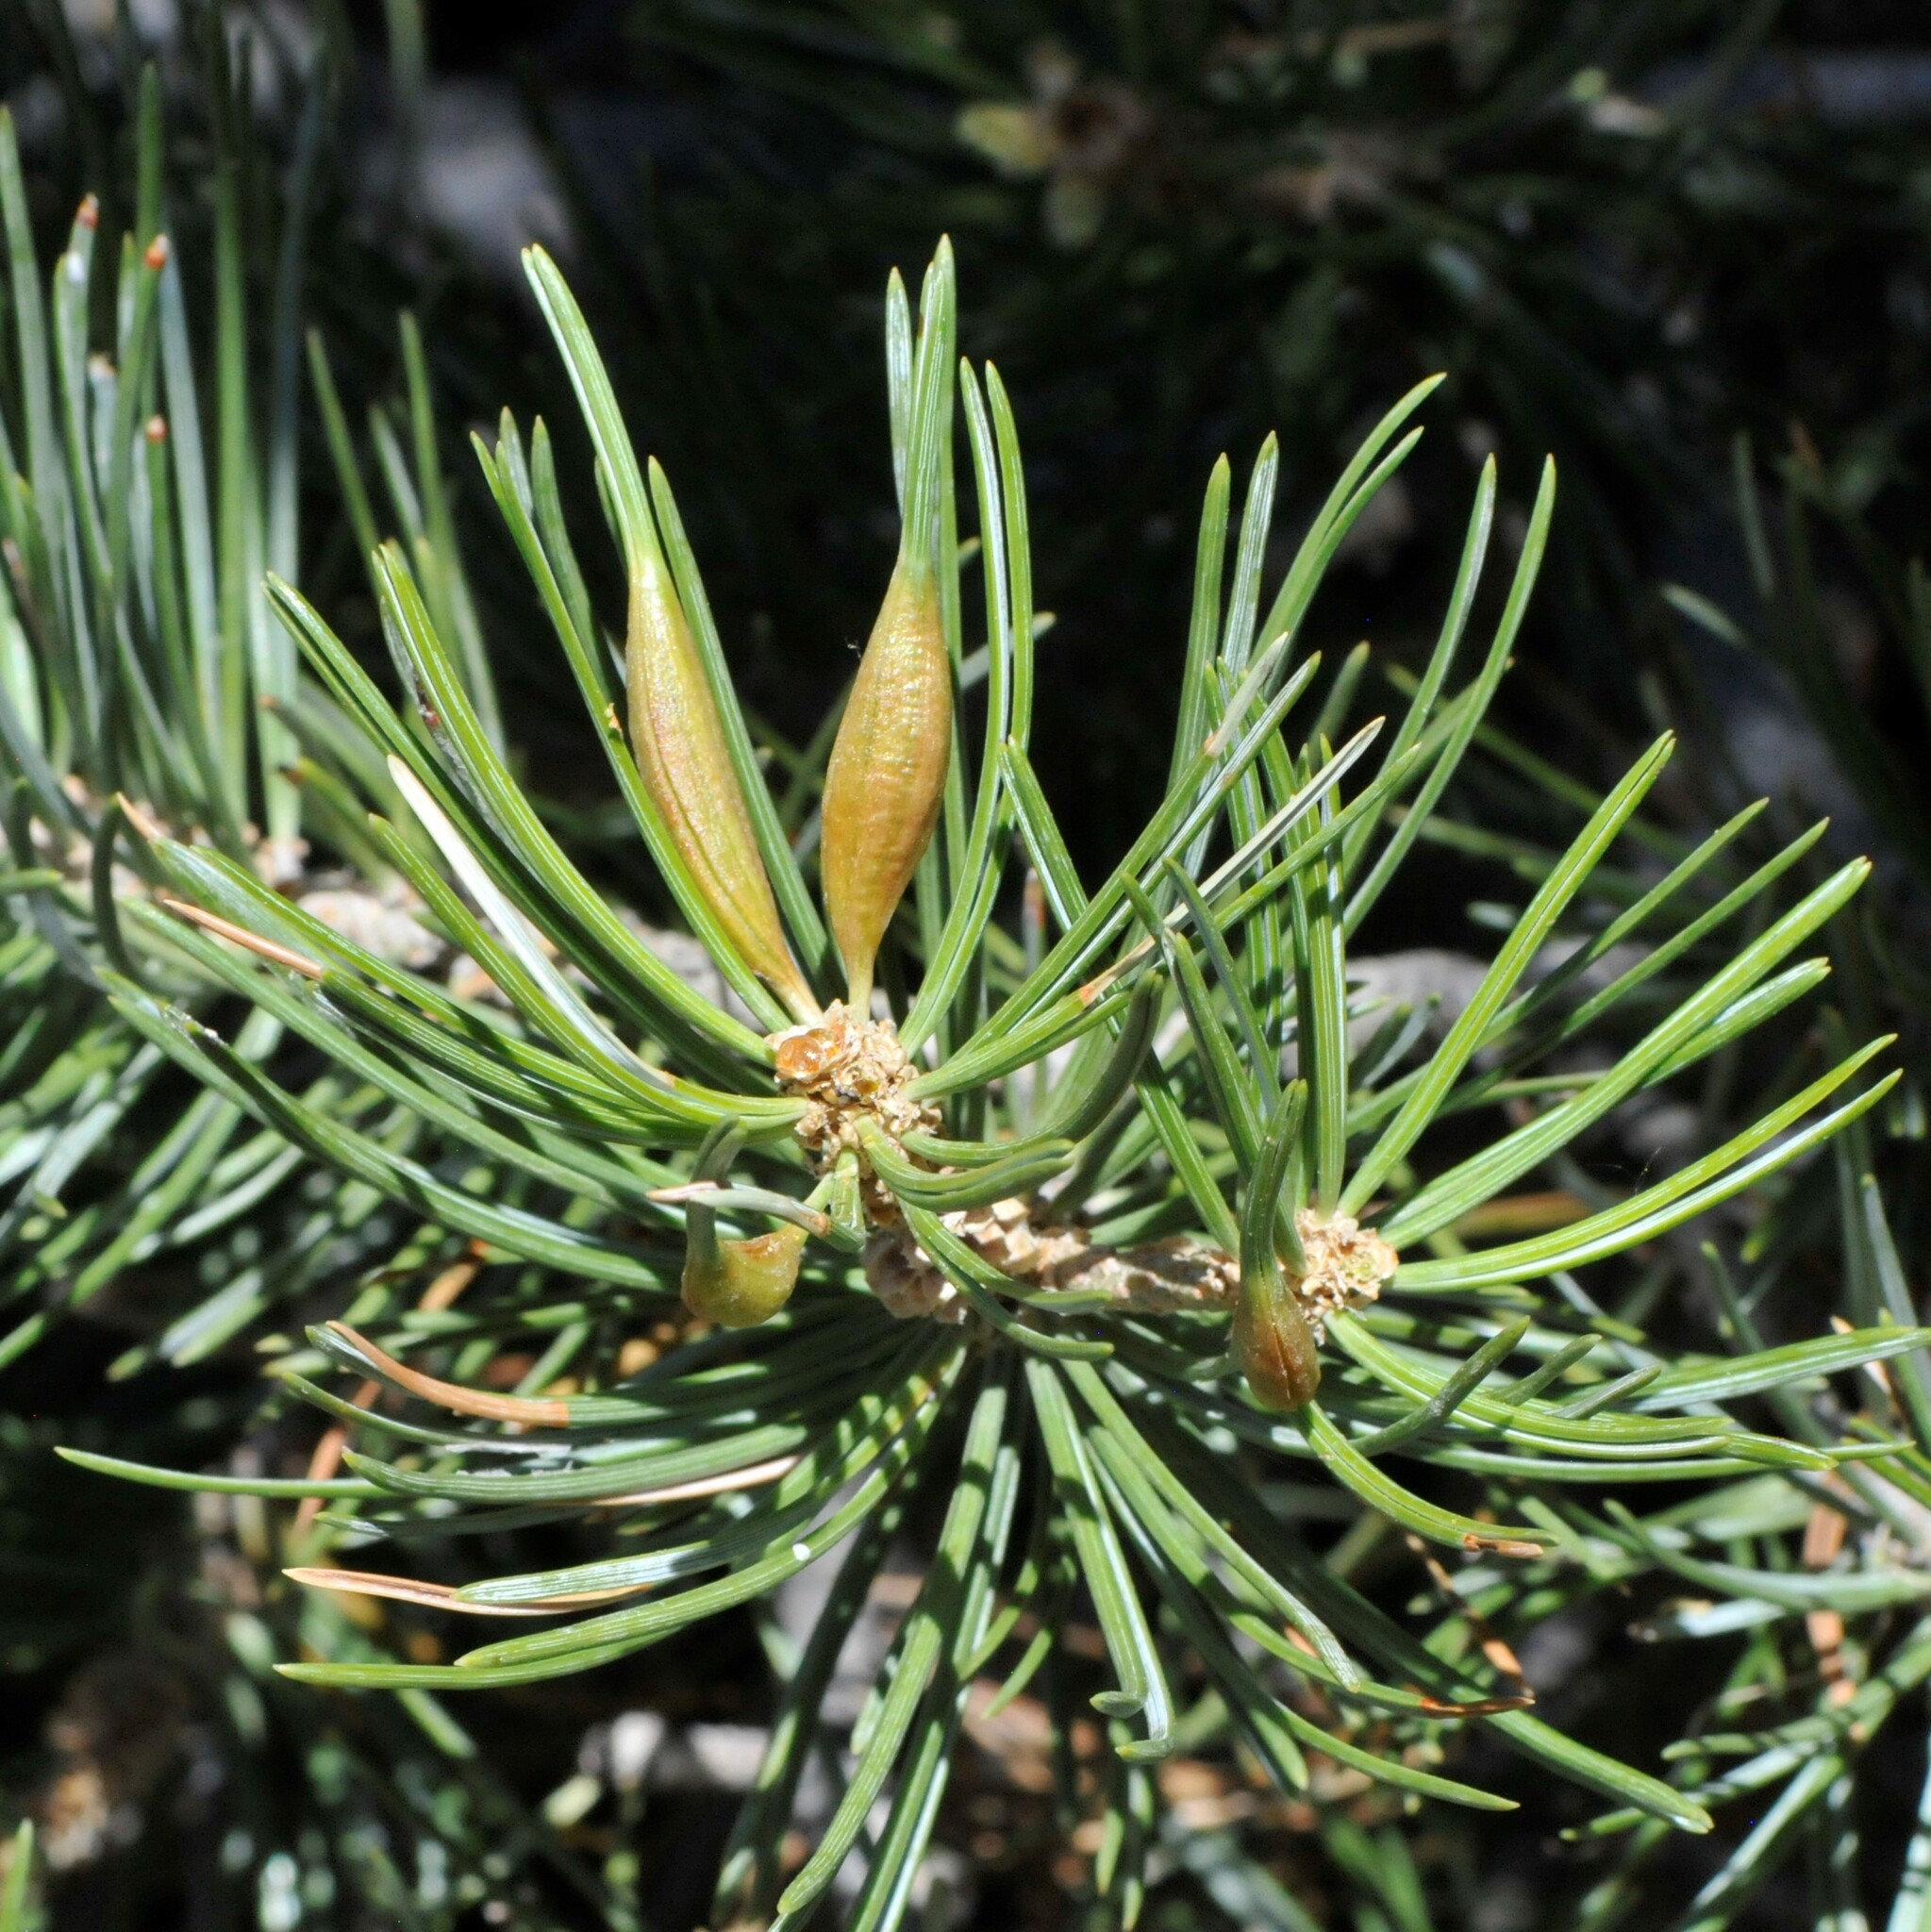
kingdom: Animalia
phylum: Arthropoda
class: Insecta
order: Diptera
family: Cecidomyiidae
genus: Pinyonia
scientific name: Pinyonia edulicola
